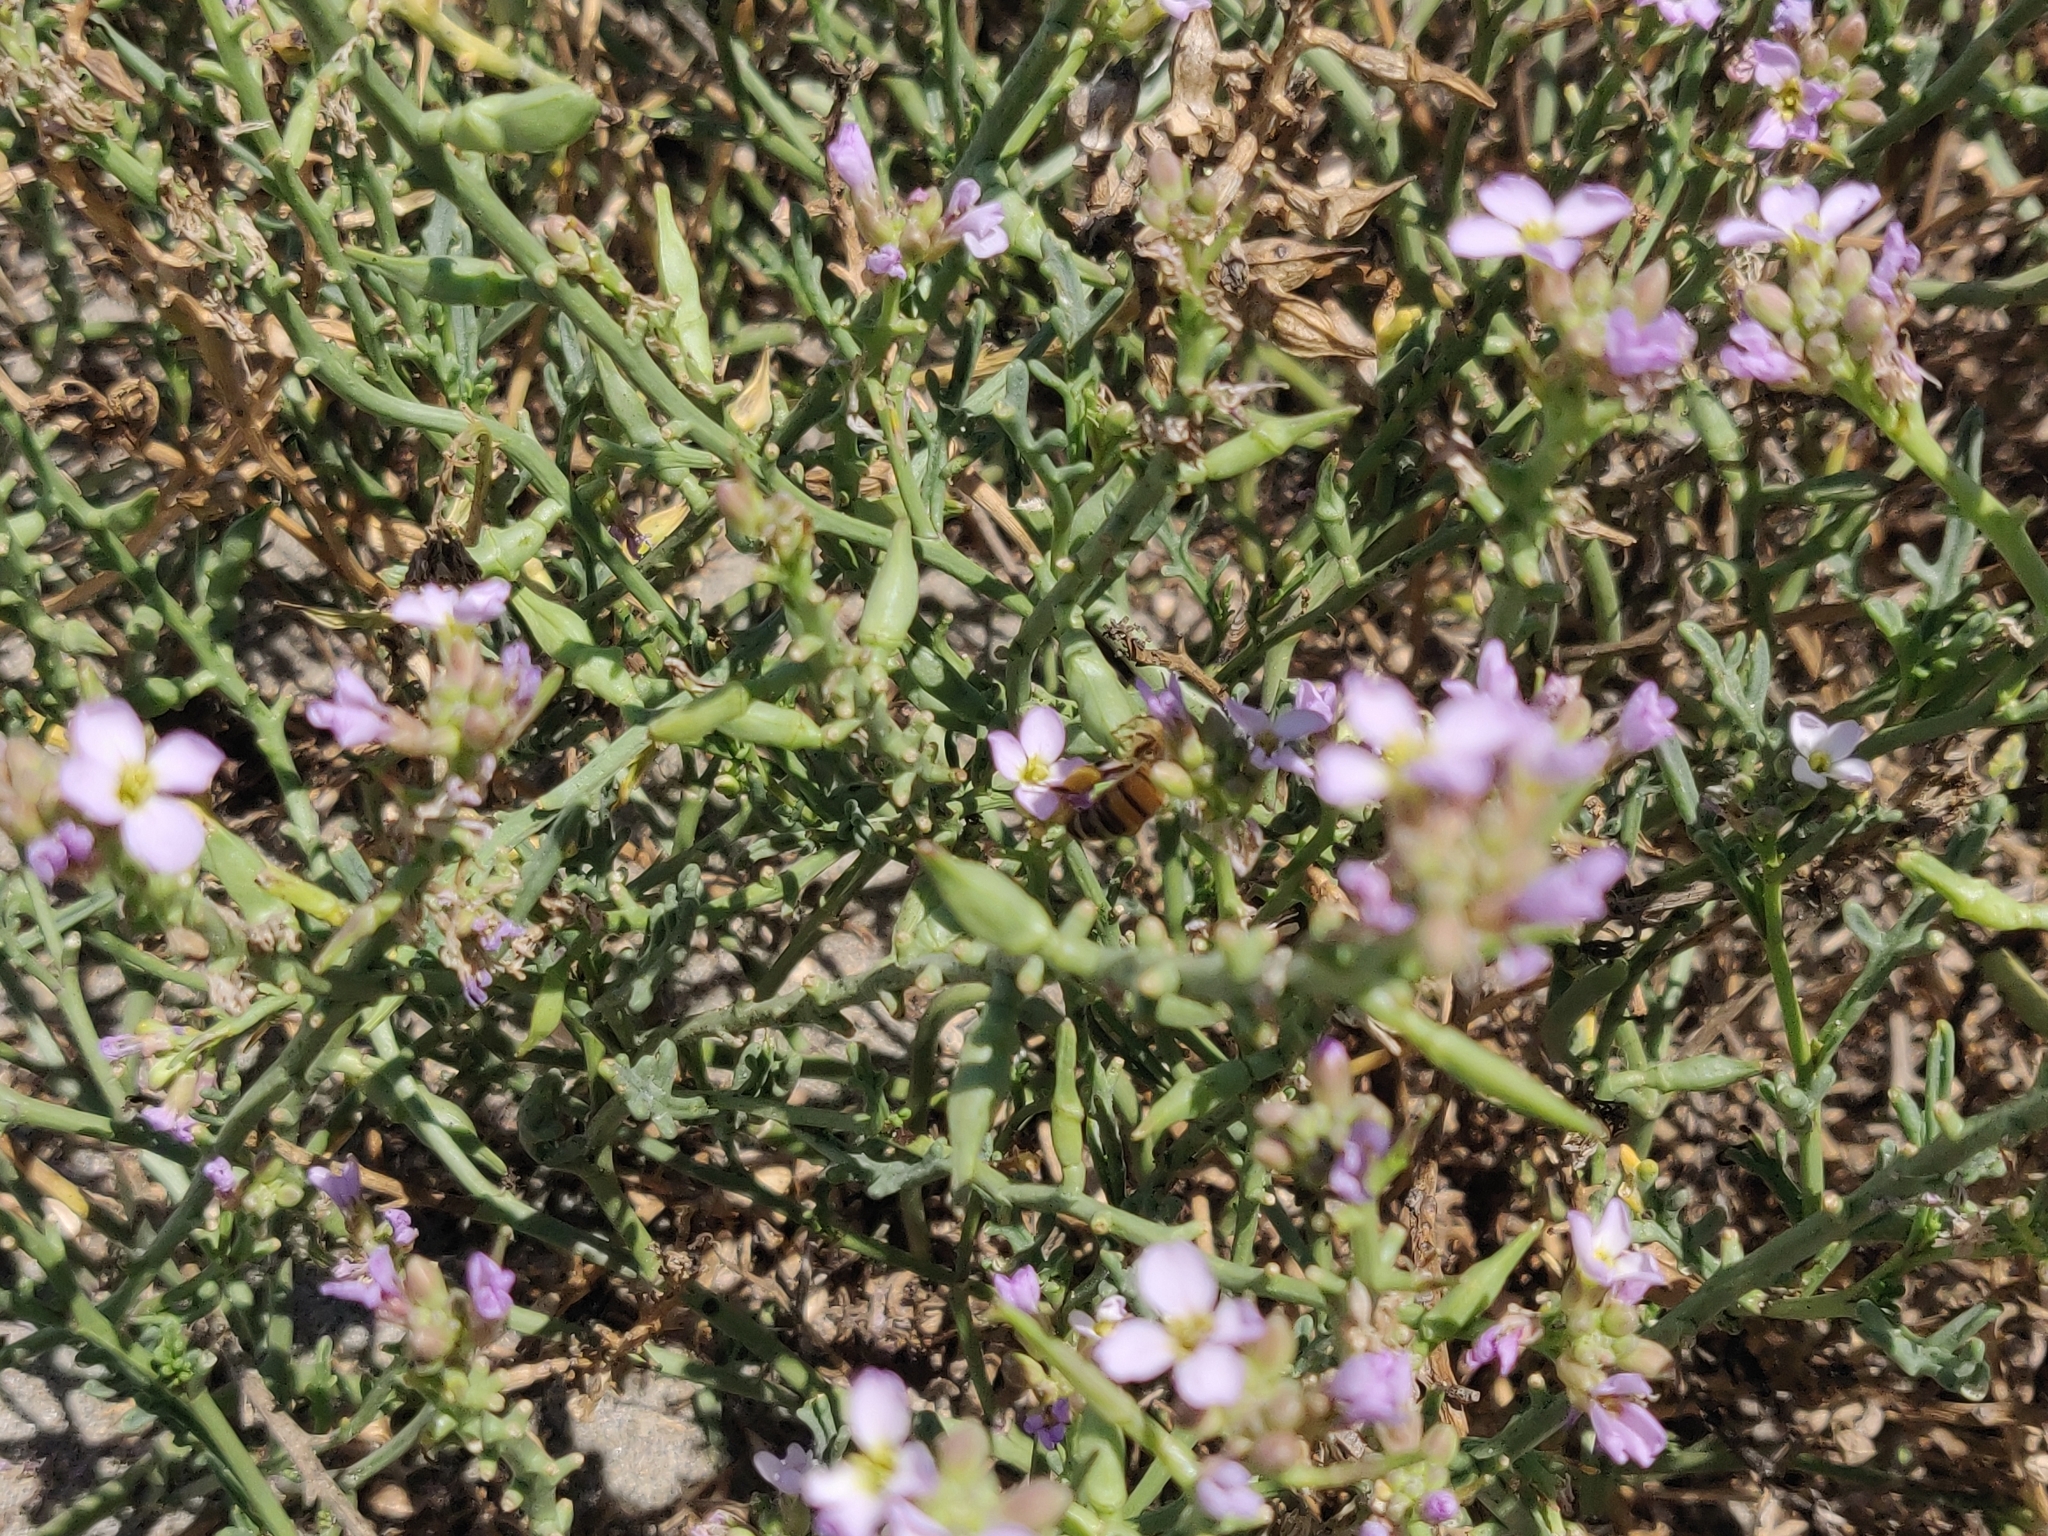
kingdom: Animalia
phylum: Arthropoda
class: Insecta
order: Hymenoptera
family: Apidae
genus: Apis
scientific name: Apis mellifera
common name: Honey bee
